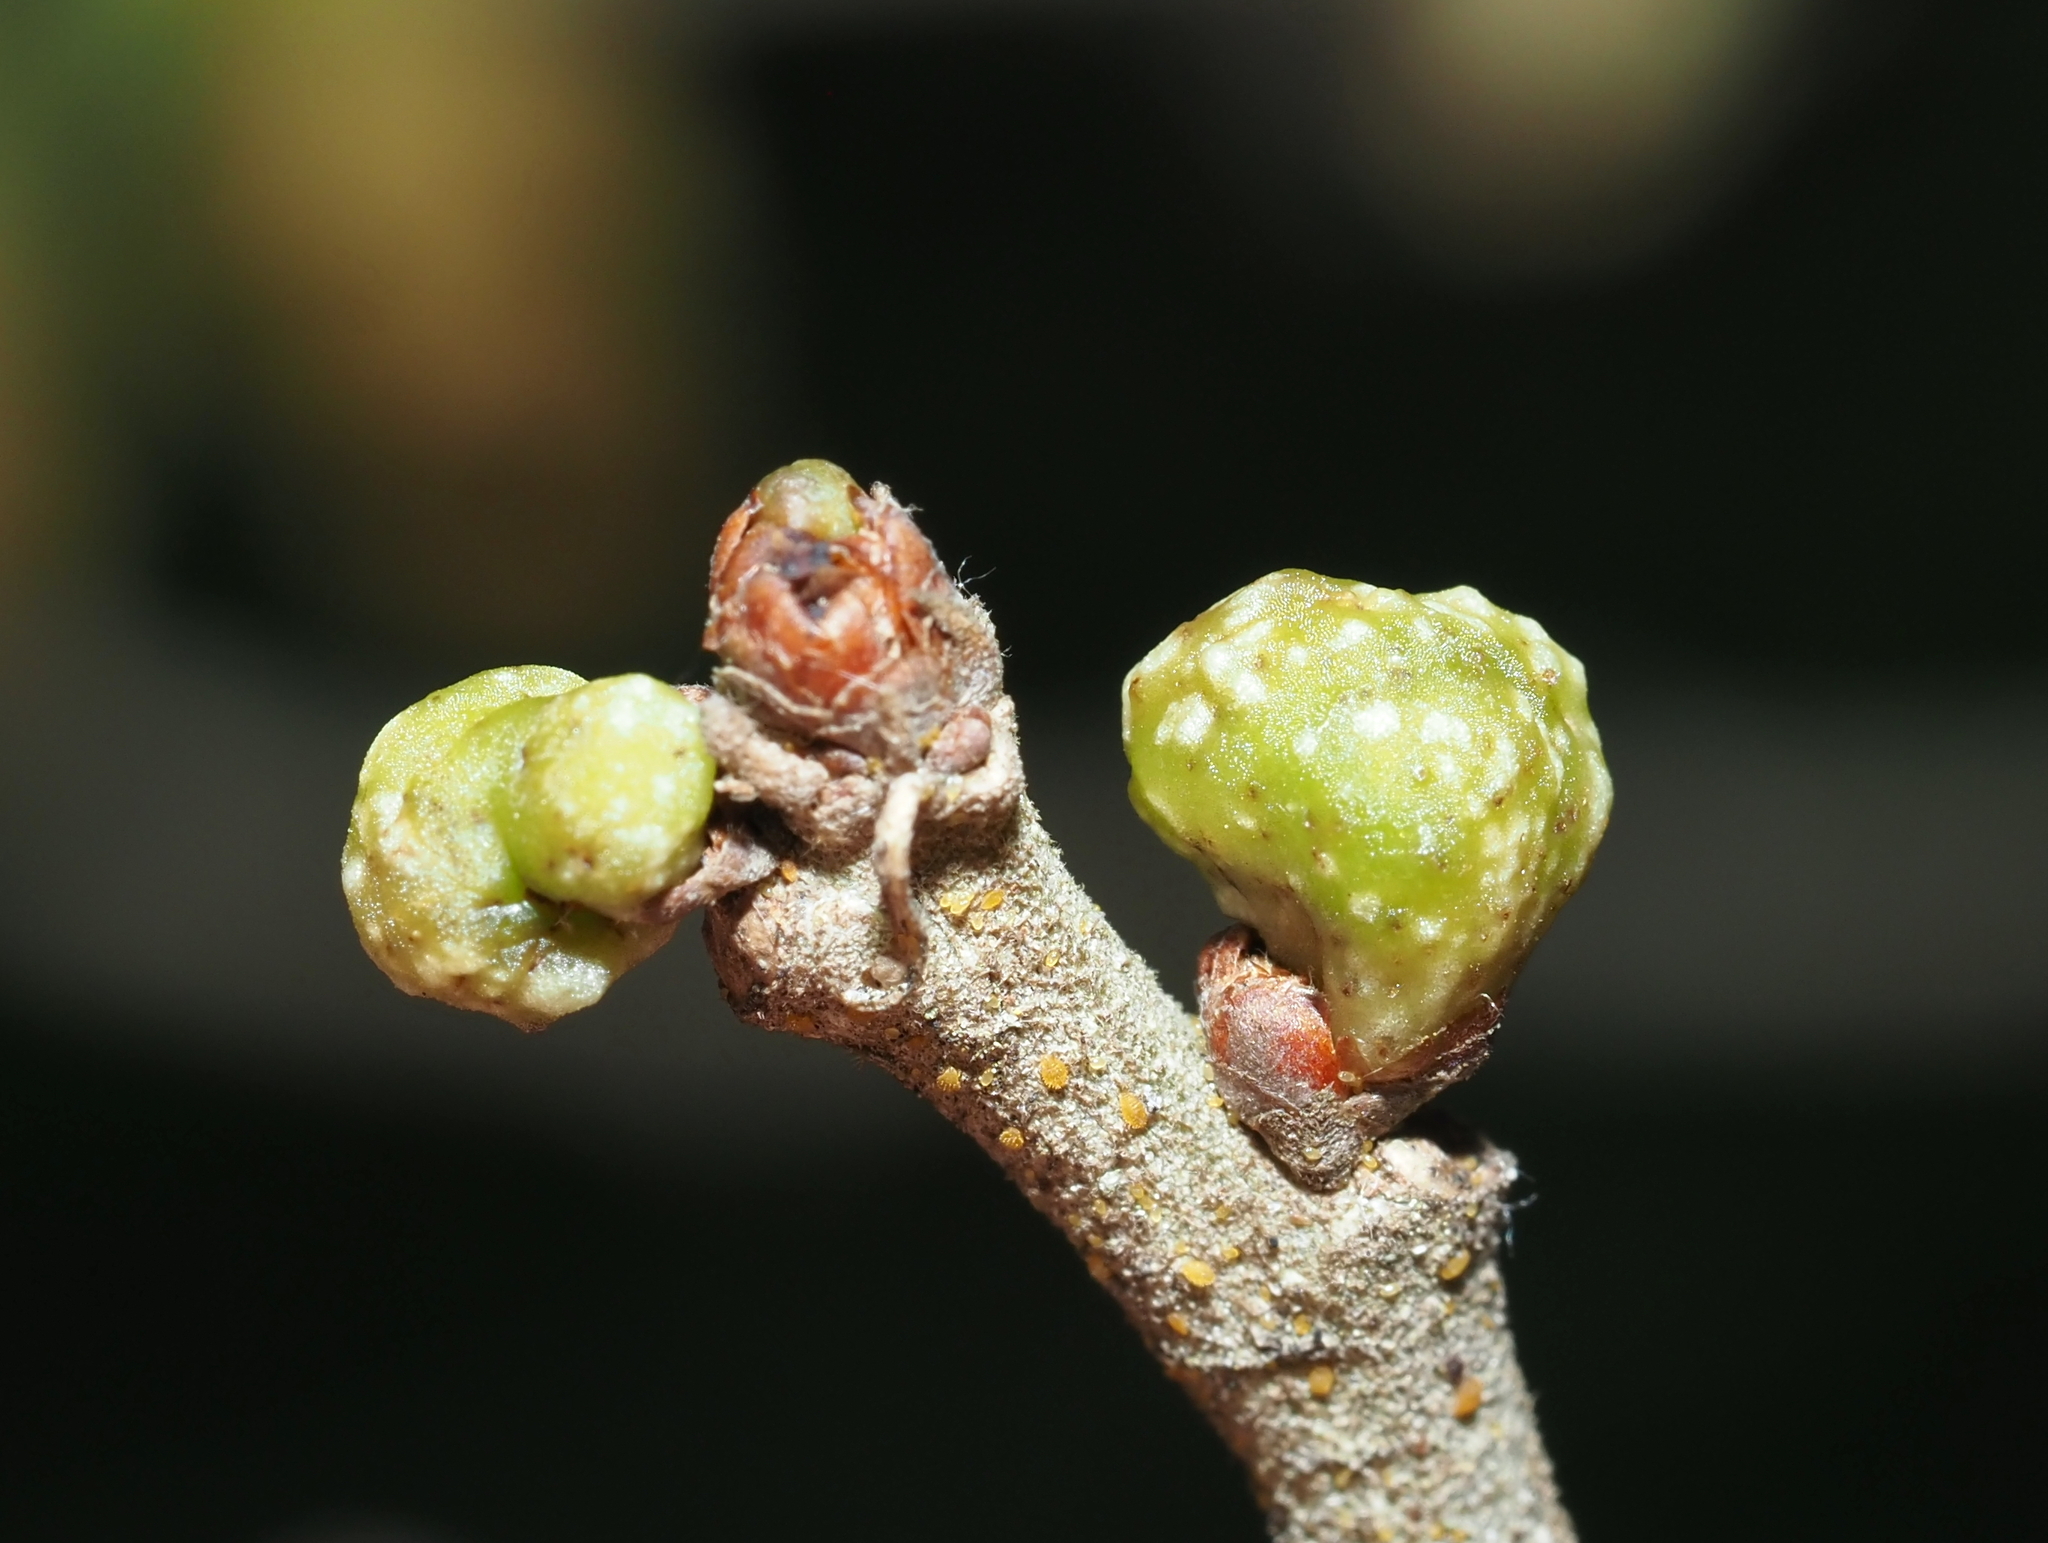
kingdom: Animalia
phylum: Arthropoda
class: Insecta
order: Hymenoptera
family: Cynipidae
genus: Andricus
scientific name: Andricus
